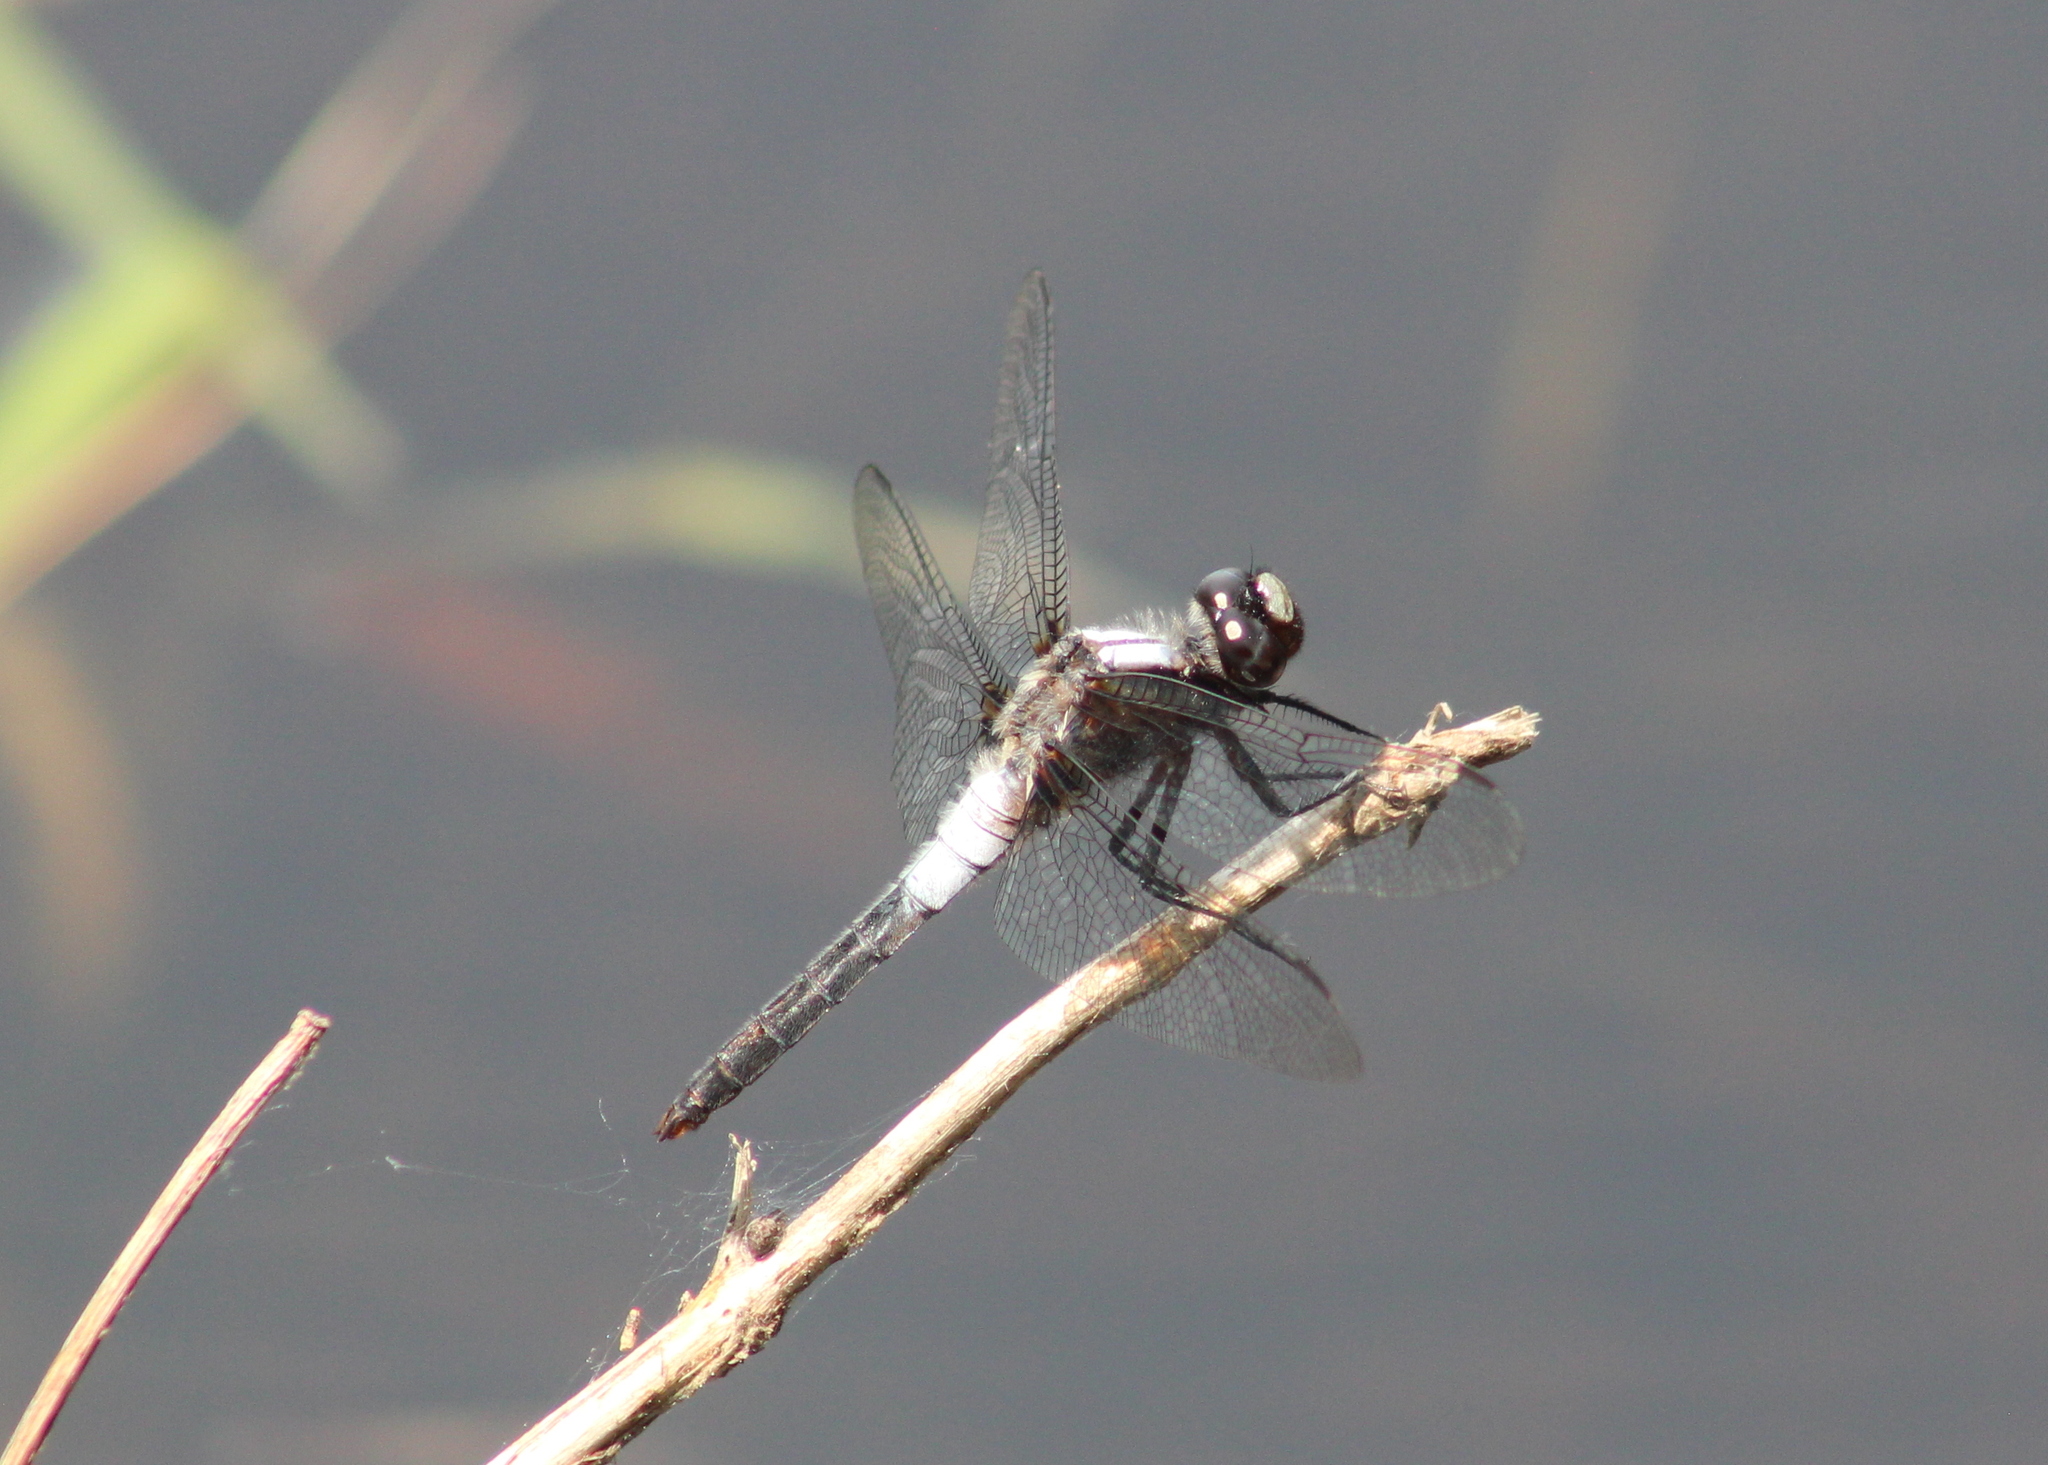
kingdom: Animalia
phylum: Arthropoda
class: Insecta
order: Odonata
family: Libellulidae
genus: Ladona
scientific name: Ladona julia
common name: Chalk-fronted corporal
